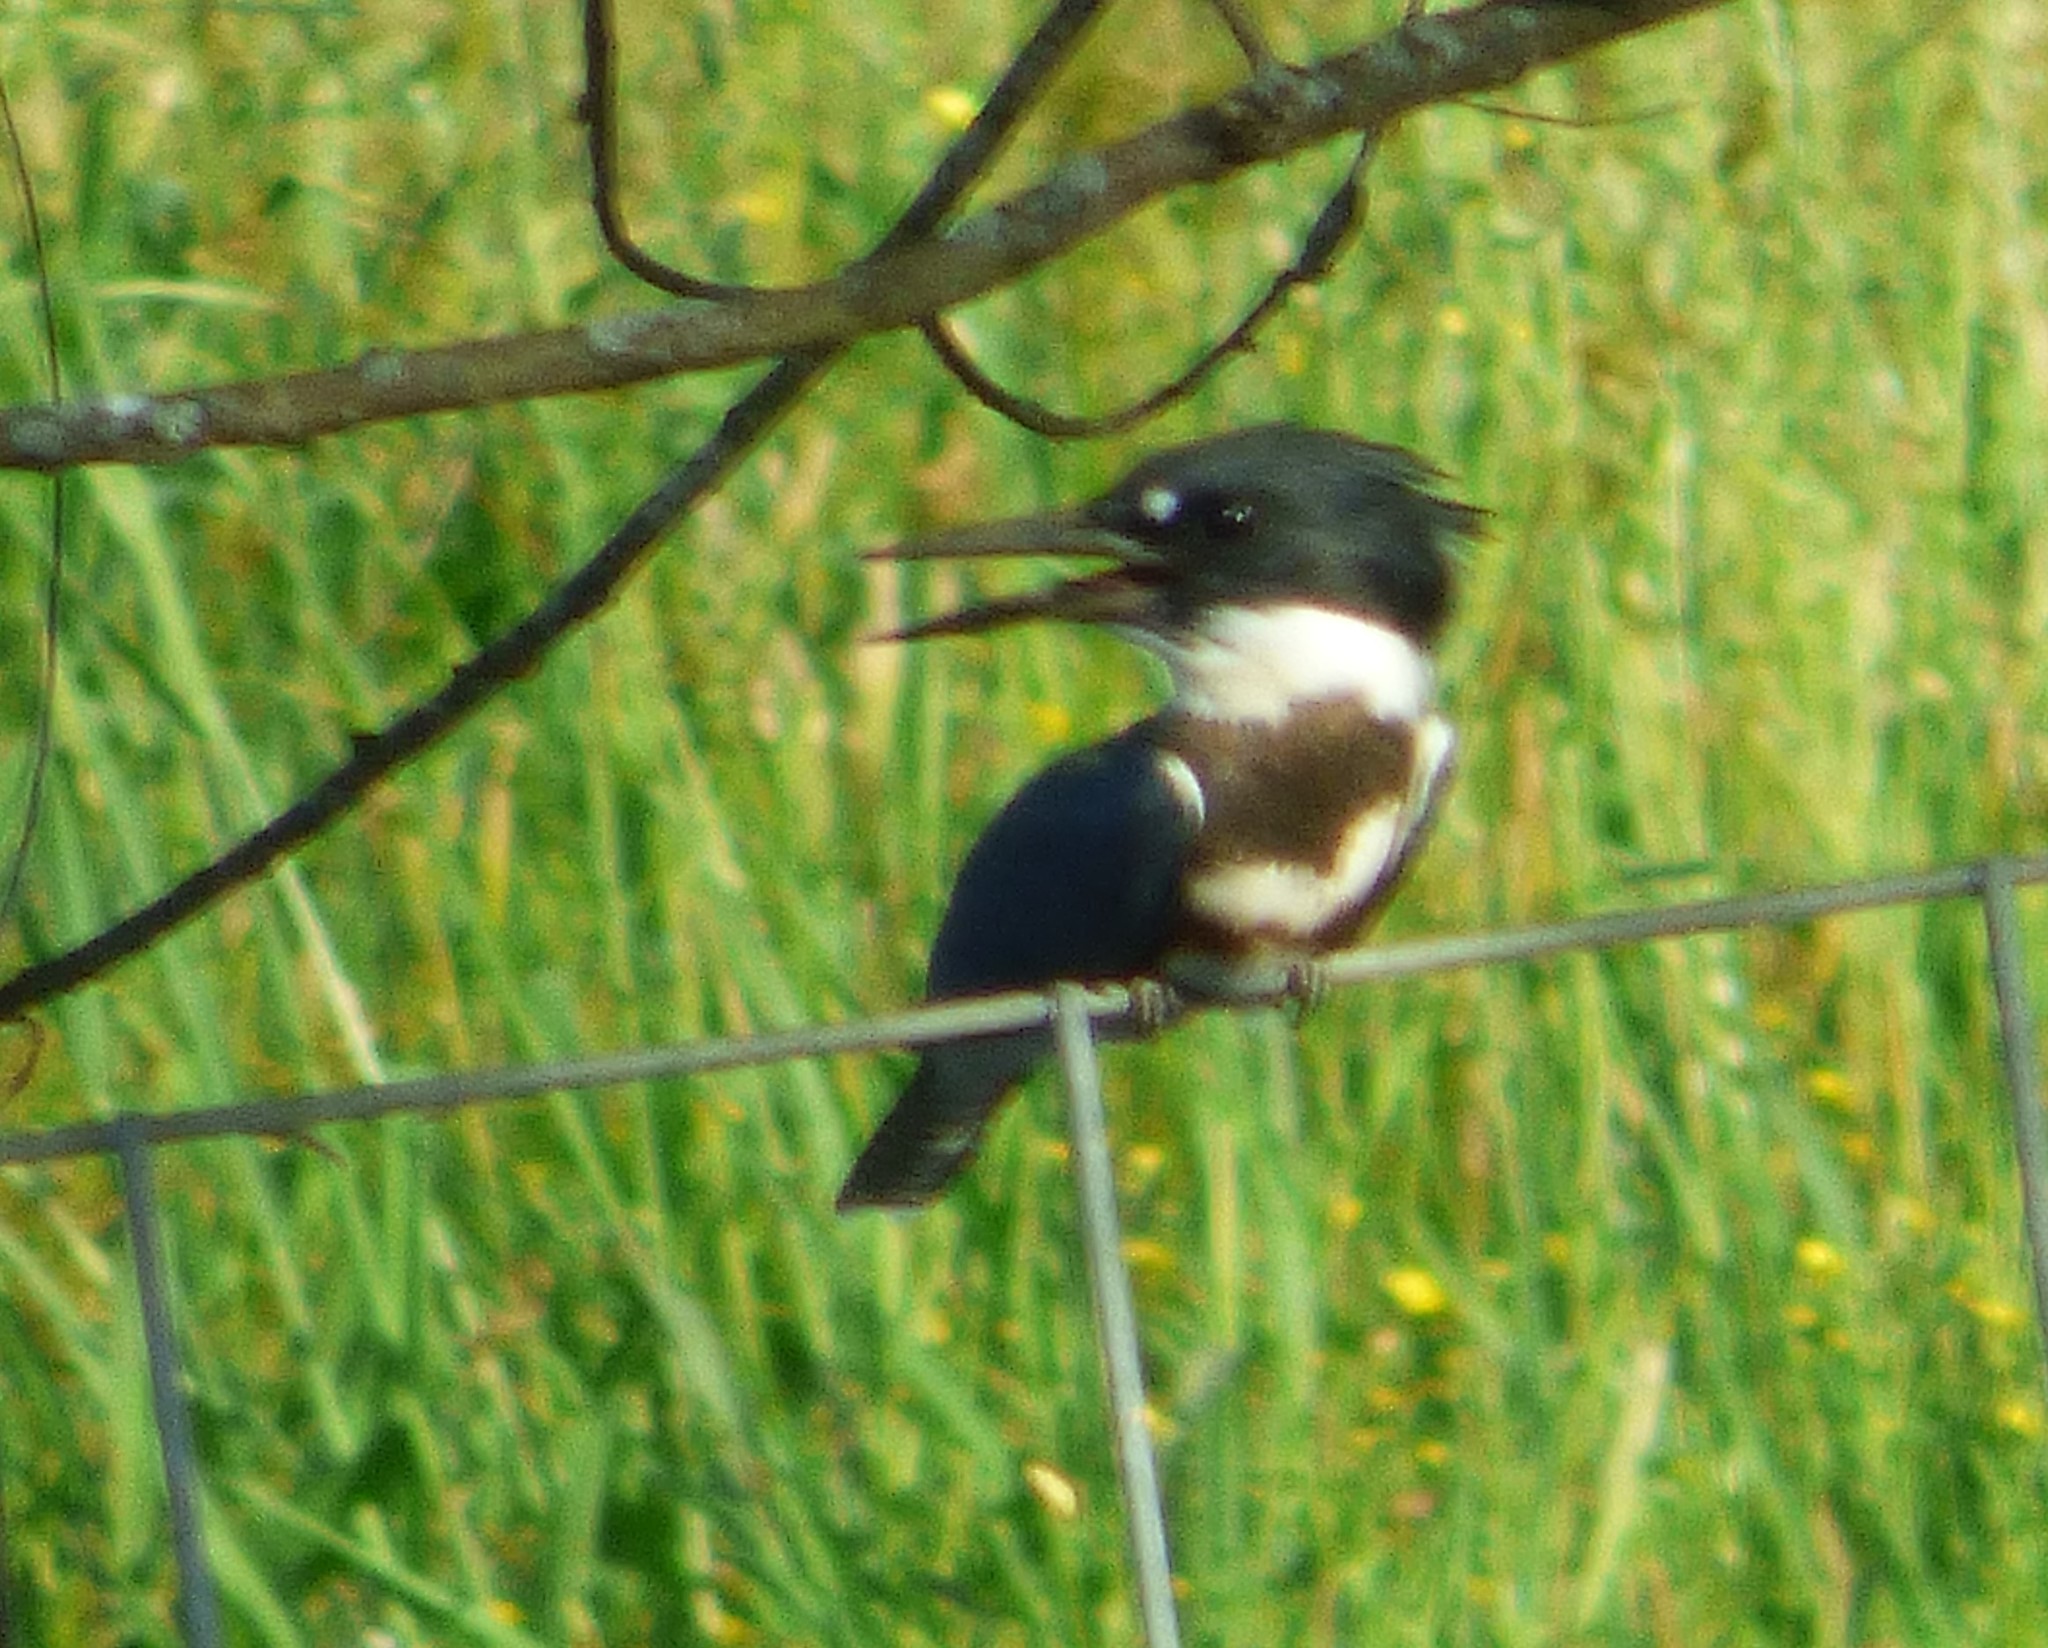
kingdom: Animalia
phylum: Chordata
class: Aves
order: Coraciiformes
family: Alcedinidae
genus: Megaceryle
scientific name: Megaceryle alcyon
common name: Belted kingfisher
